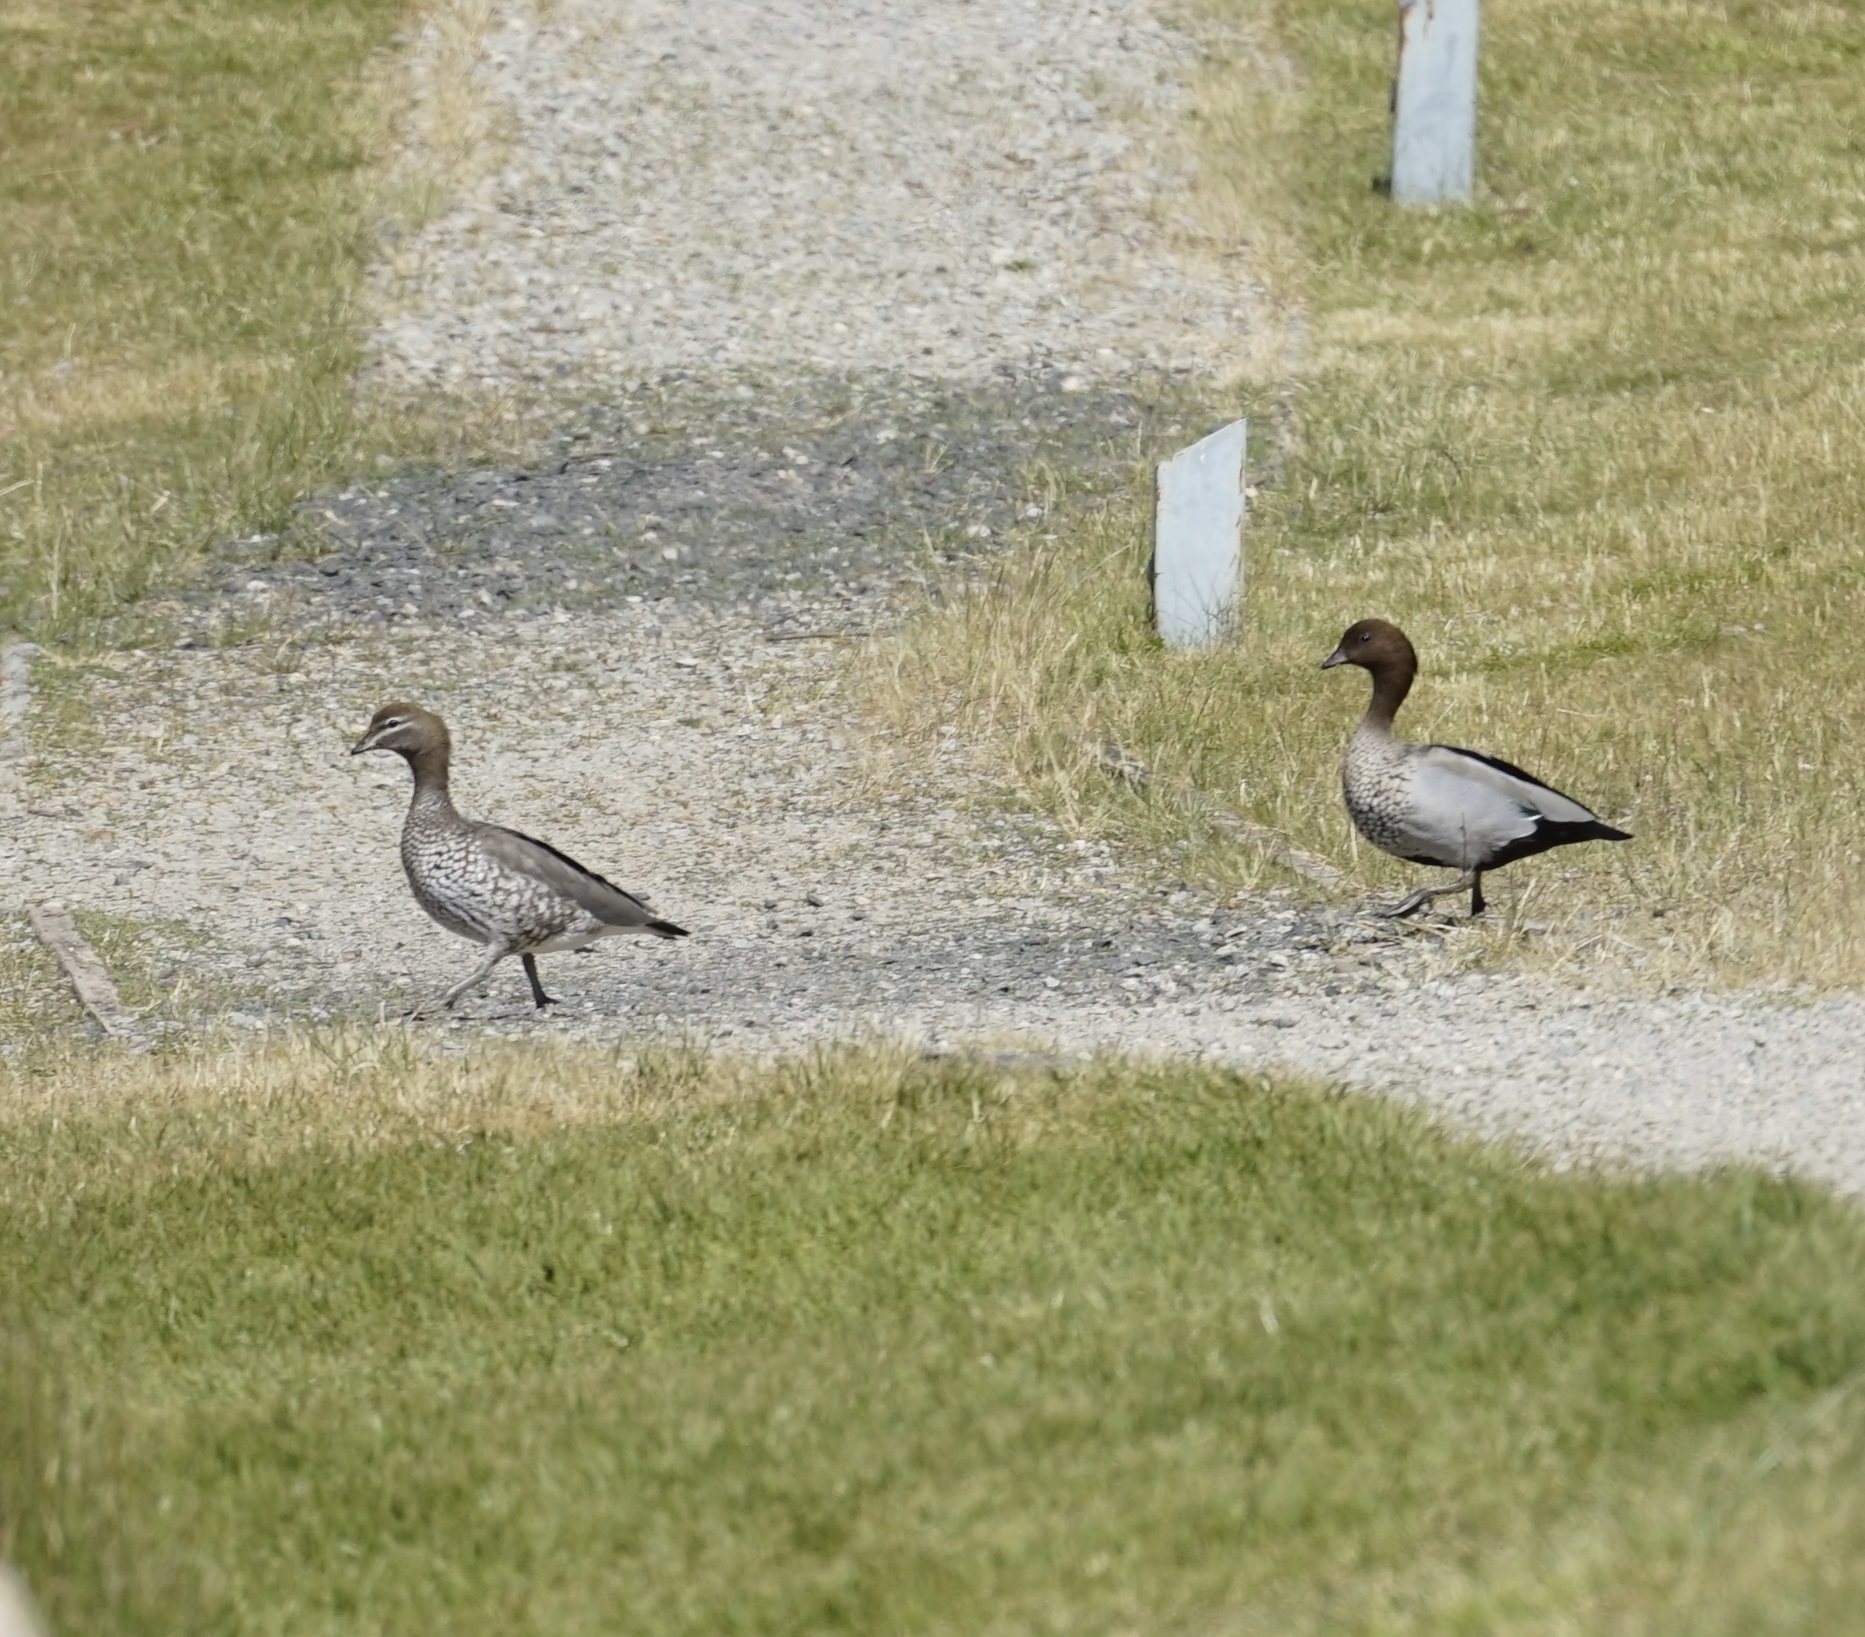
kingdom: Animalia
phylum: Chordata
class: Aves
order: Anseriformes
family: Anatidae
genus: Chenonetta
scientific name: Chenonetta jubata
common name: Maned duck
